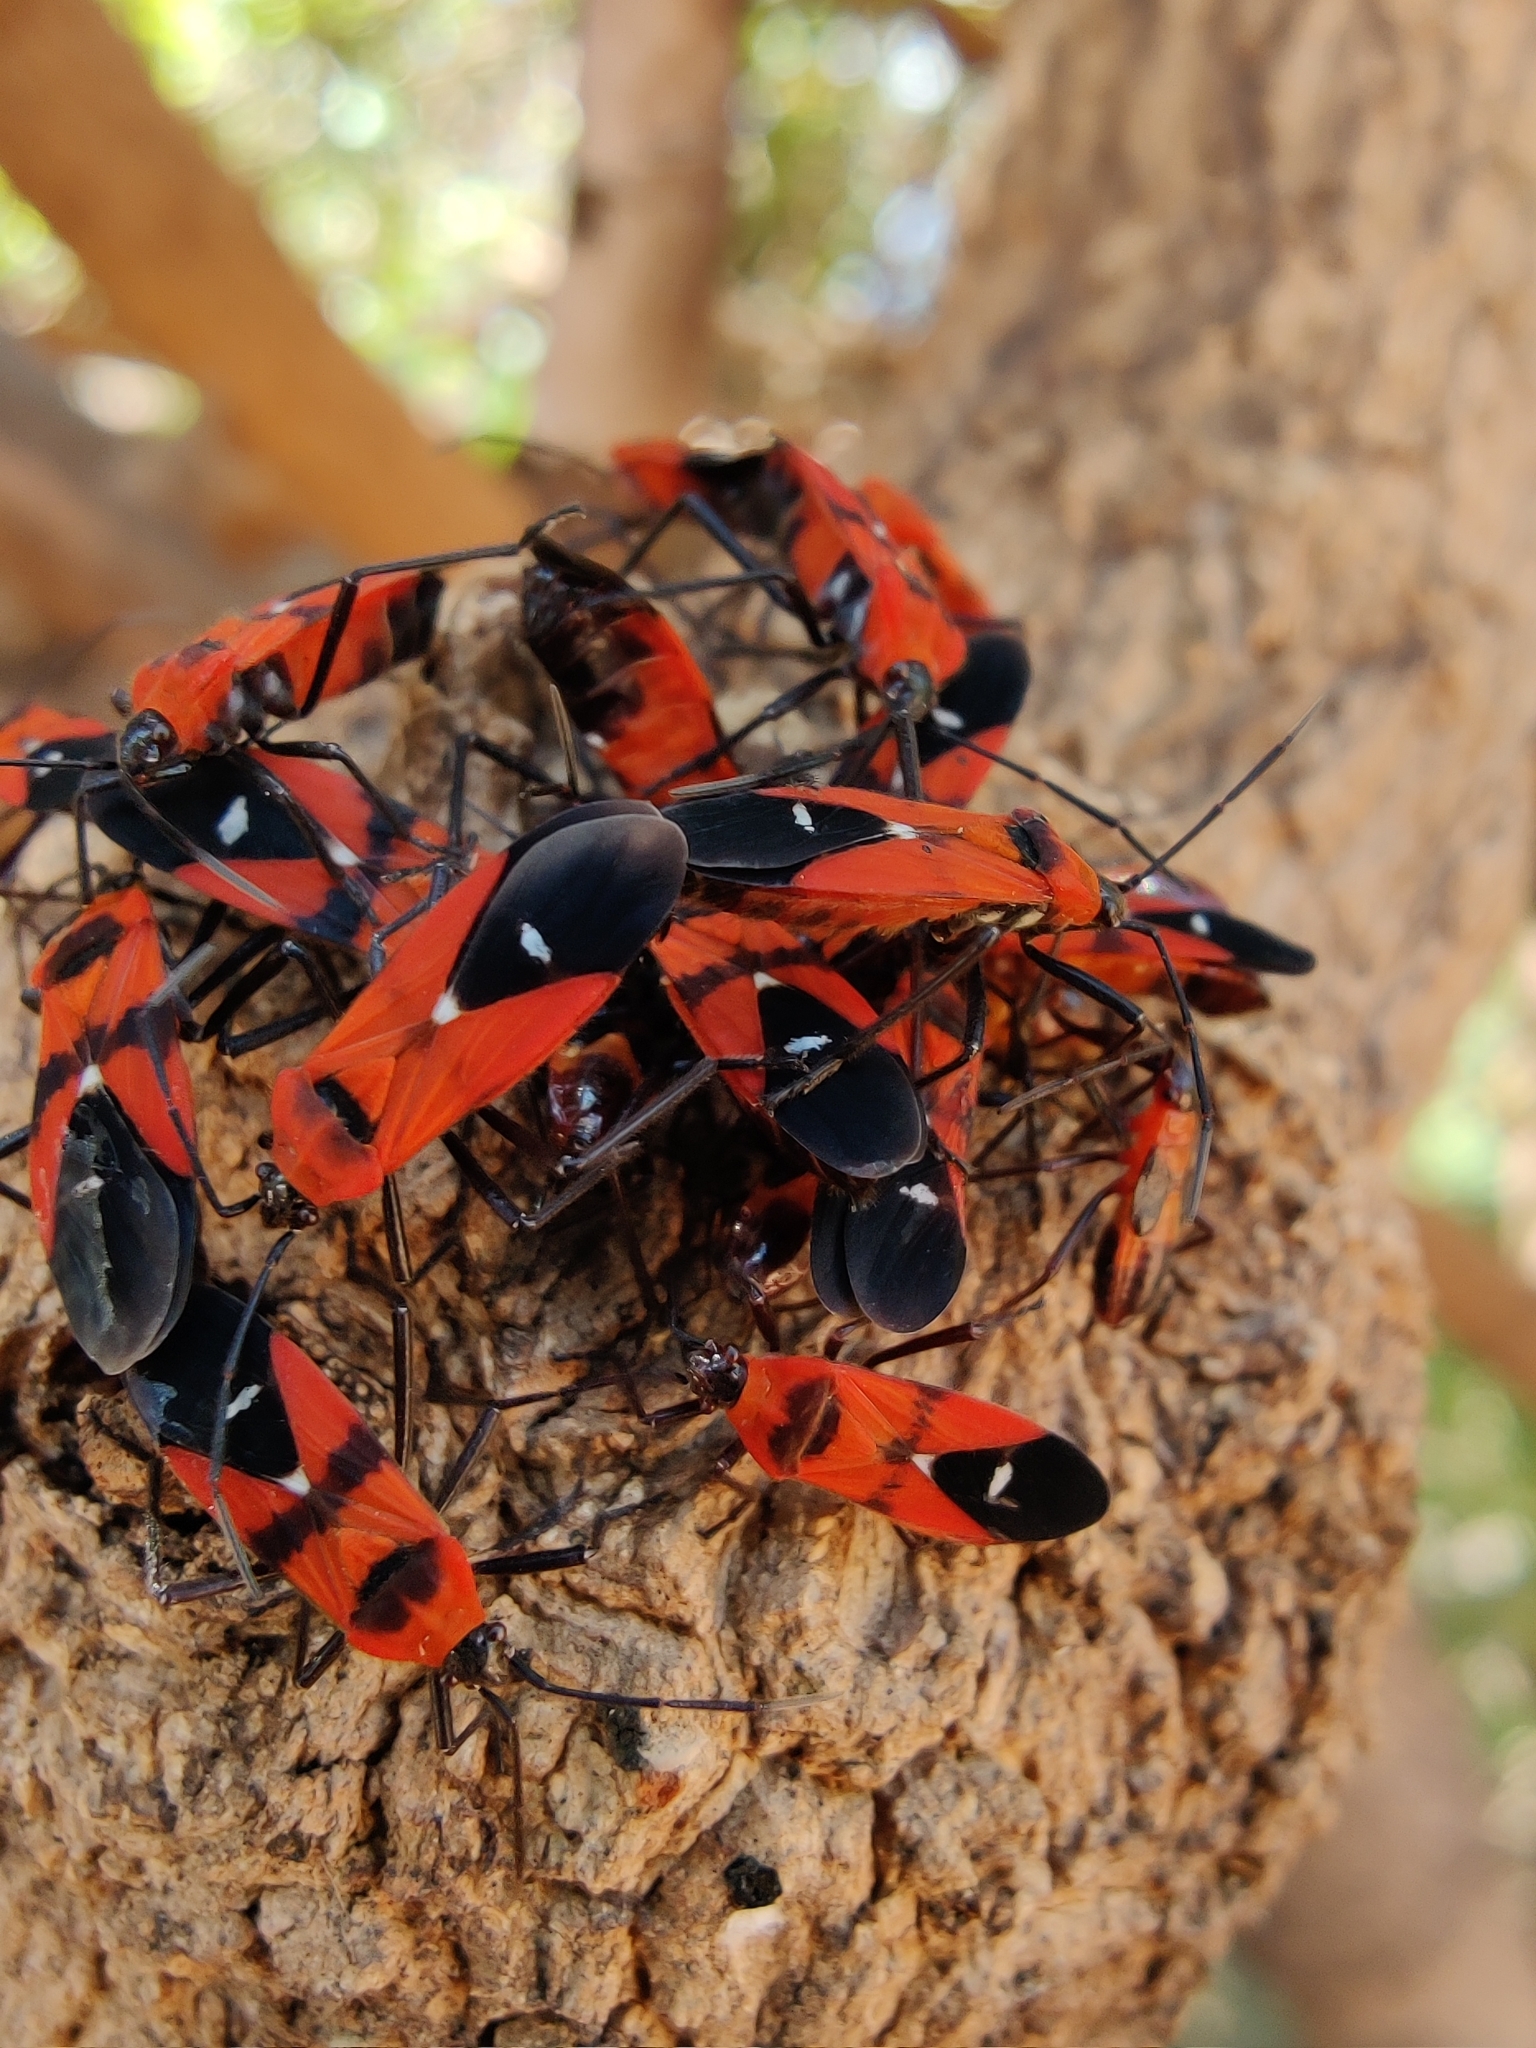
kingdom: Animalia
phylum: Arthropoda
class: Insecta
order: Hemiptera
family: Lygaeidae
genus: Oncopeltus
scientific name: Oncopeltus nigriceps
